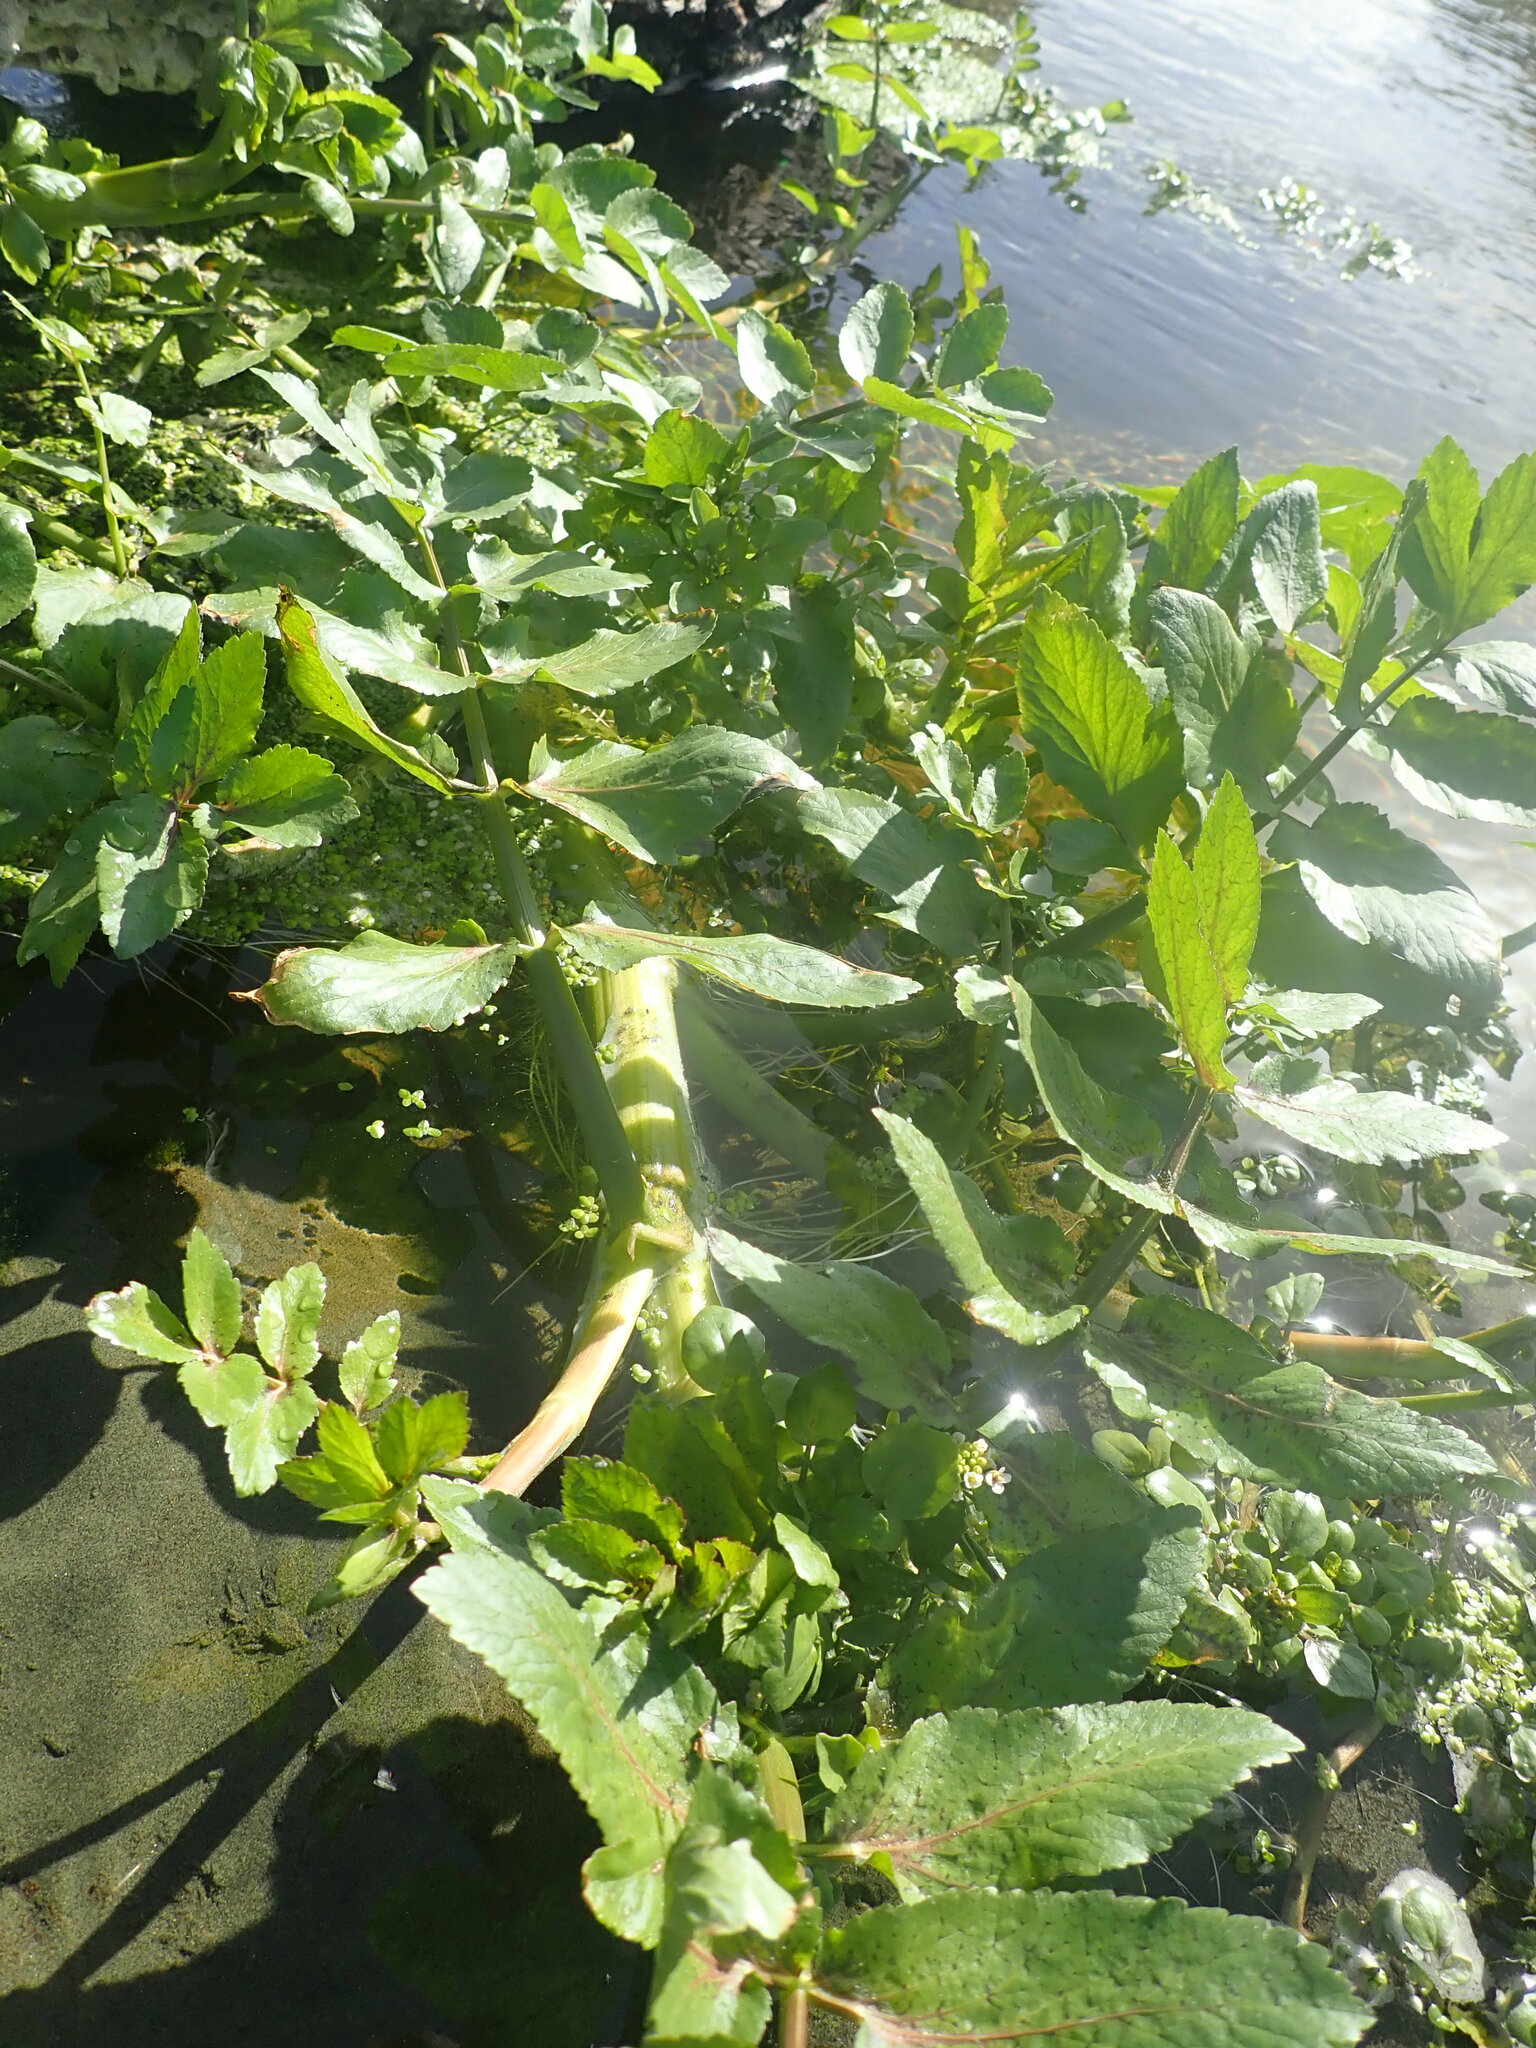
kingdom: Plantae
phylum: Tracheophyta
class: Magnoliopsida
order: Apiales
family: Apiaceae
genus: Helosciadium
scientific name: Helosciadium nodiflorum
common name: Fool's-watercress
